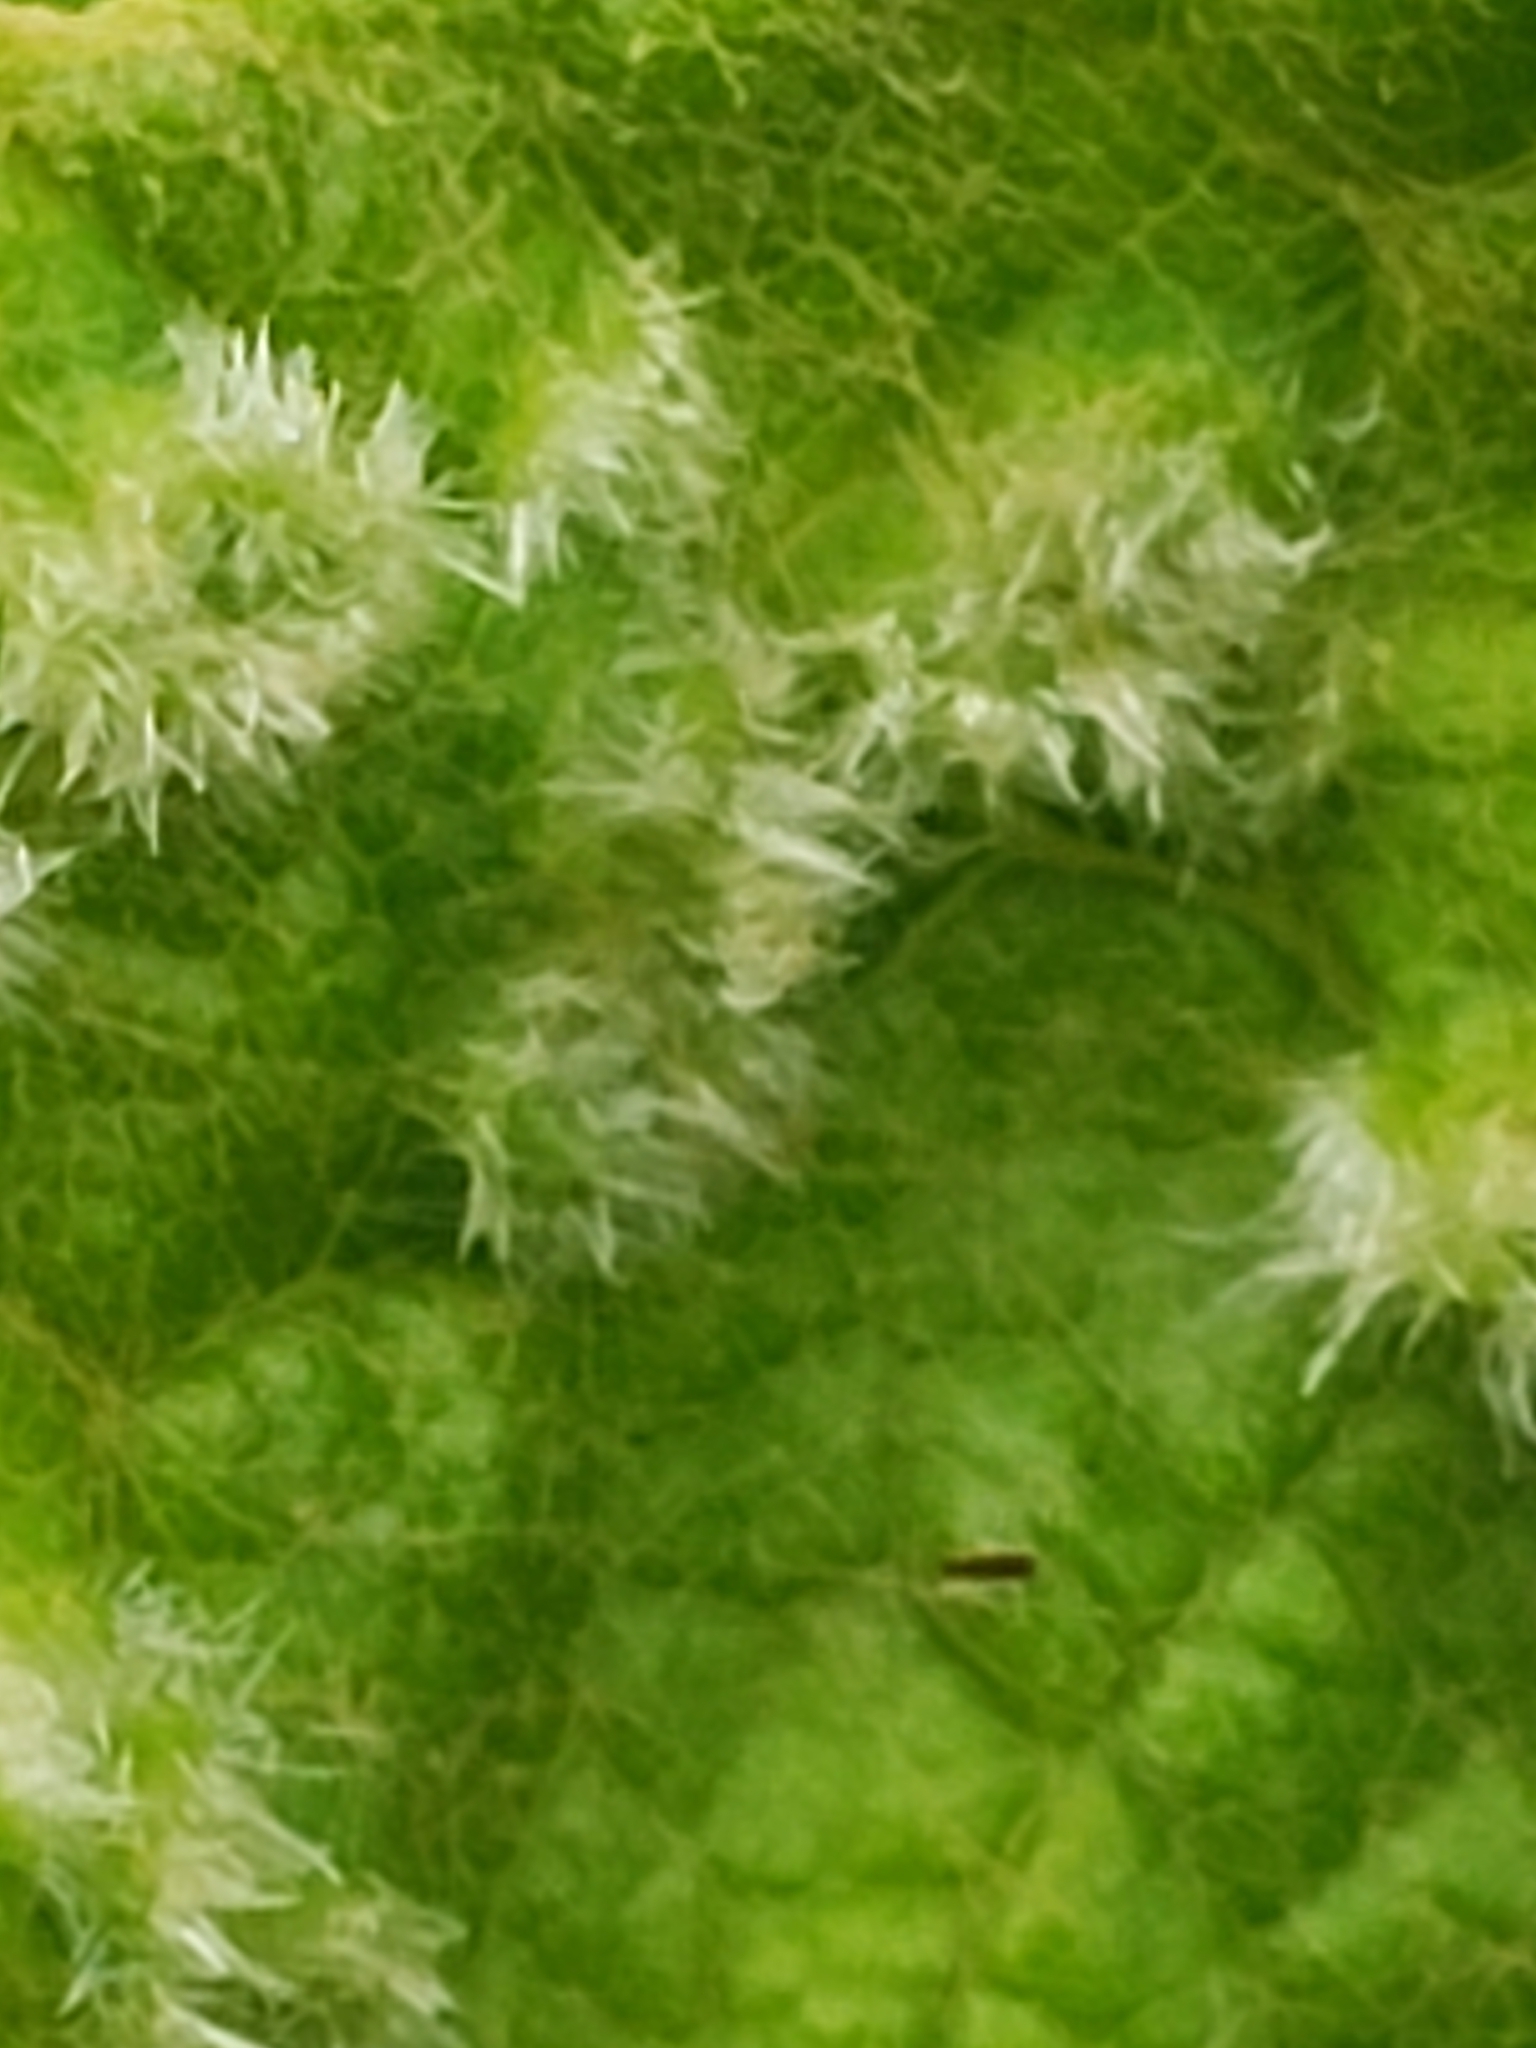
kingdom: Animalia
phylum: Arthropoda
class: Insecta
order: Hemiptera
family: Phylloxeridae
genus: Daktulosphaira
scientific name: Daktulosphaira vitifoliae
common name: Grape phylloxera
